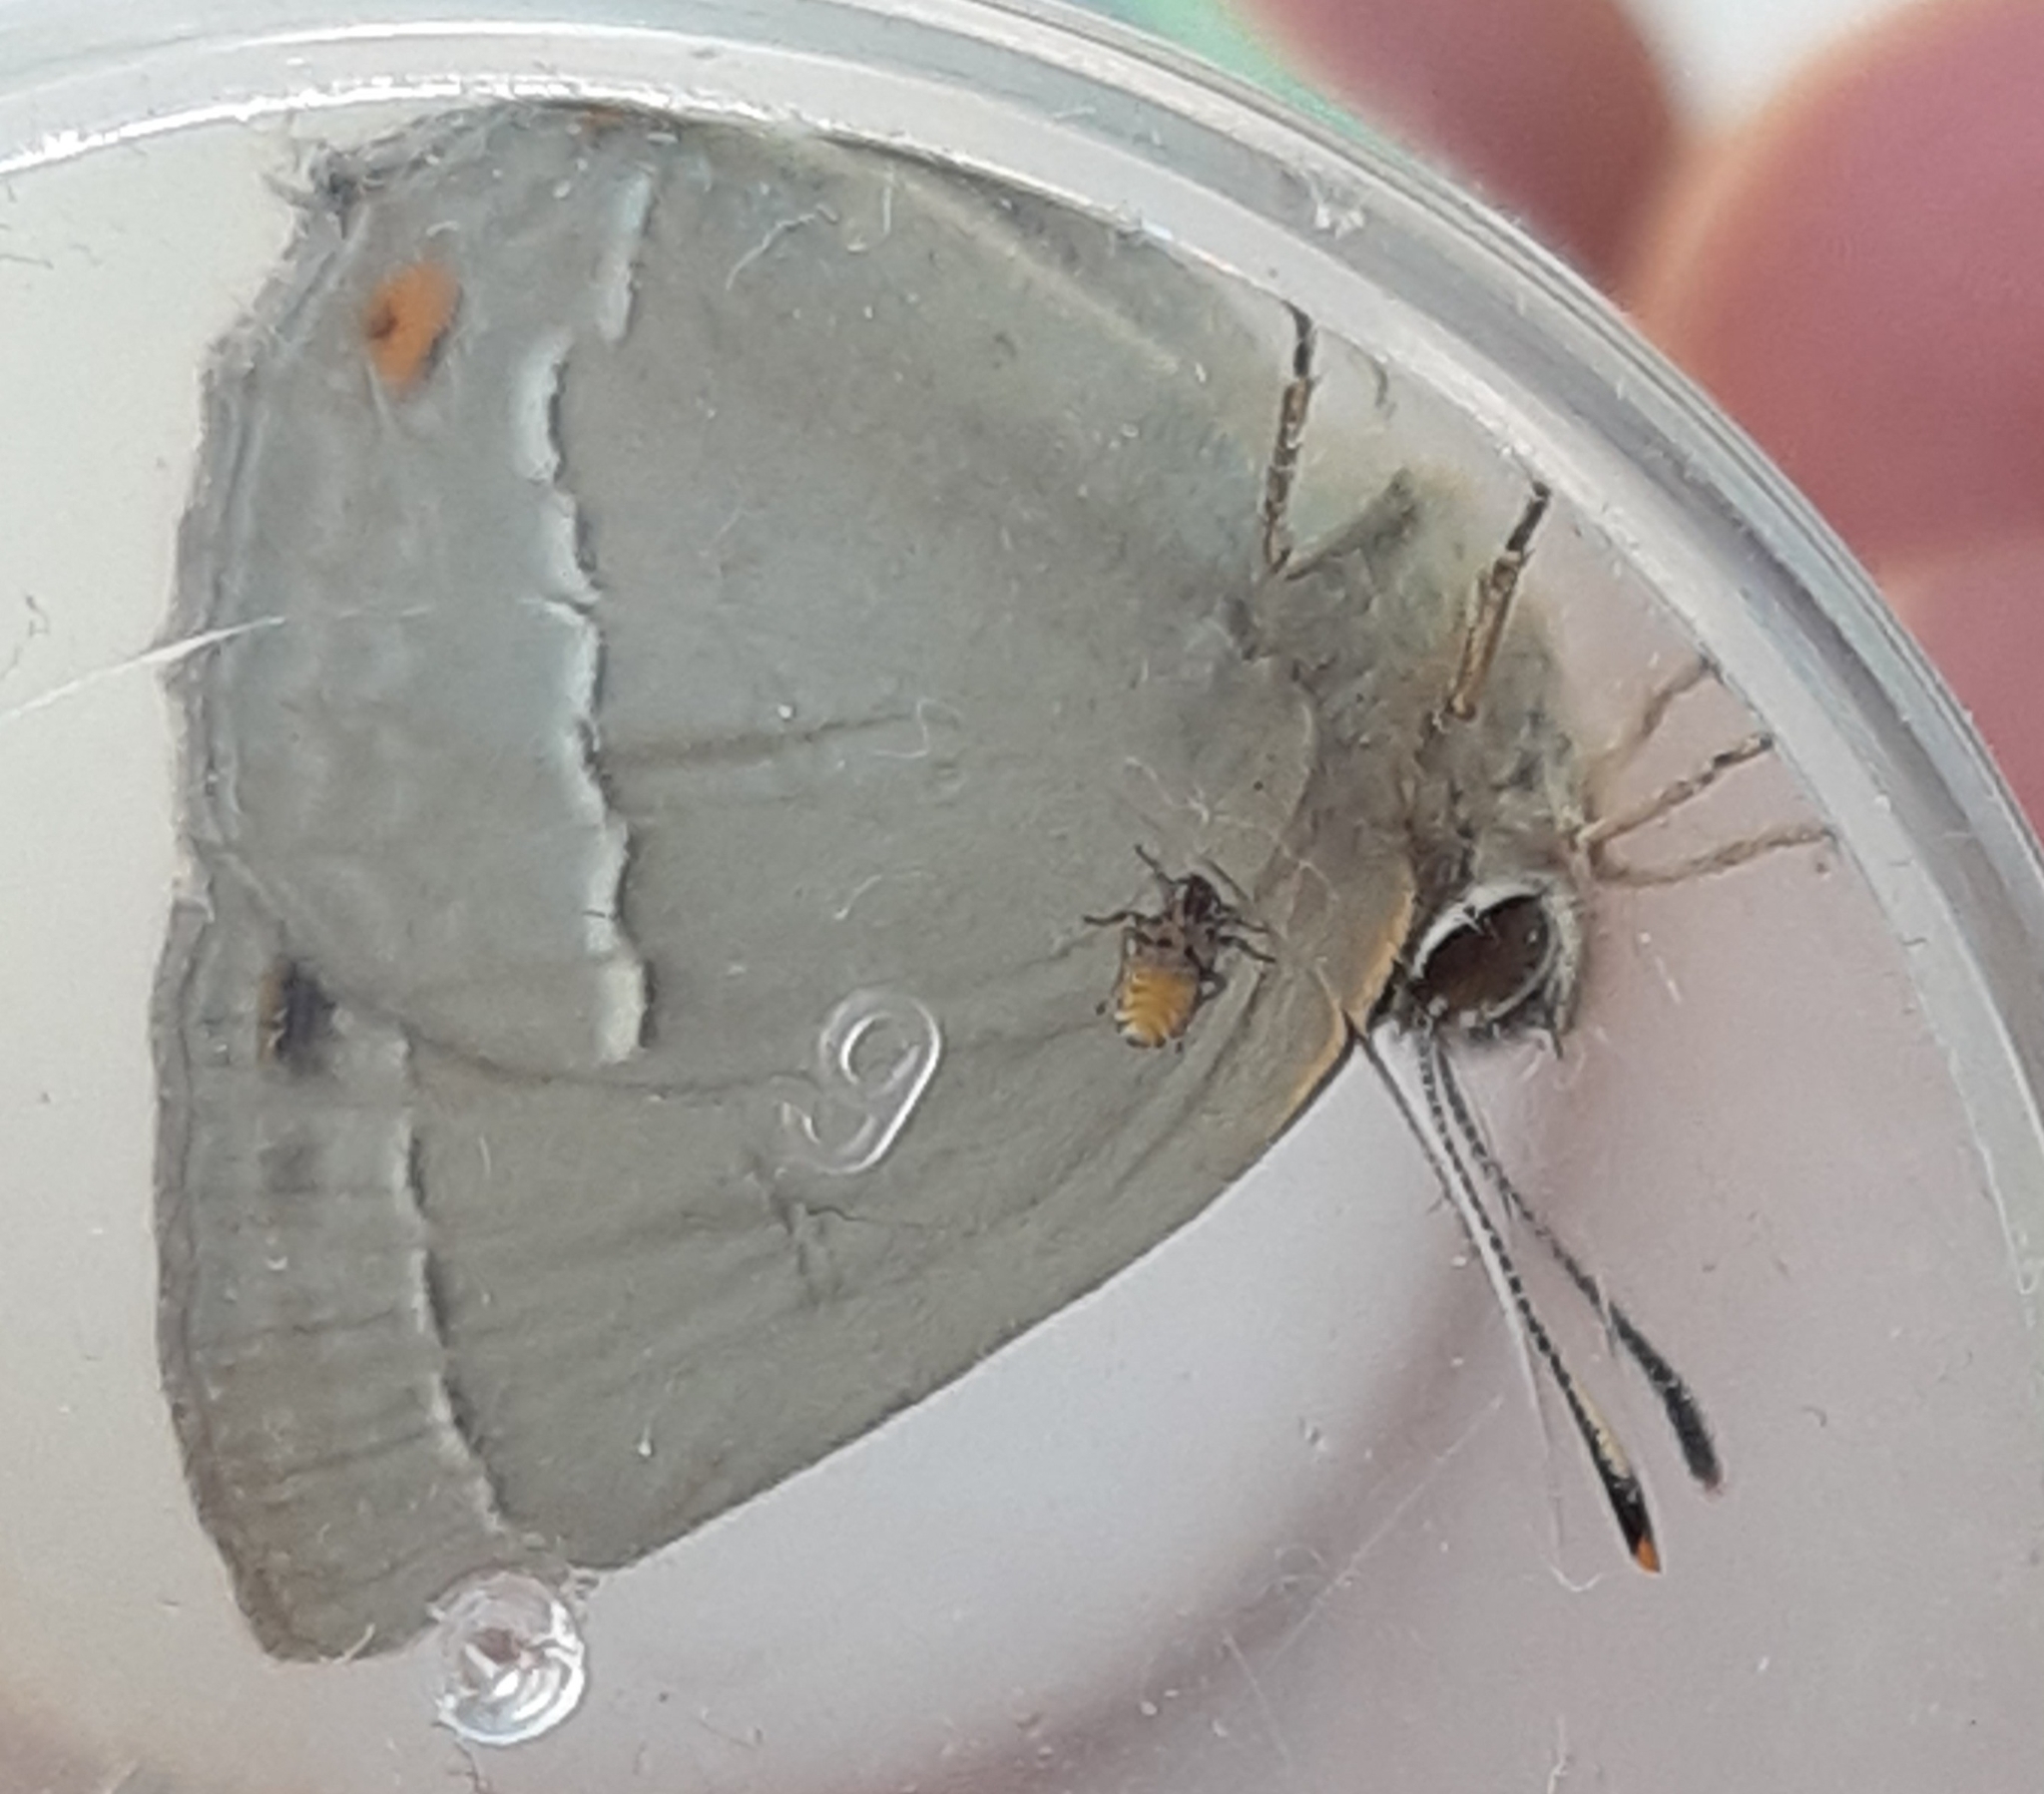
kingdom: Animalia
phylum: Arthropoda
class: Insecta
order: Lepidoptera
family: Lycaenidae
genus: Quercusia
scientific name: Quercusia quercus
